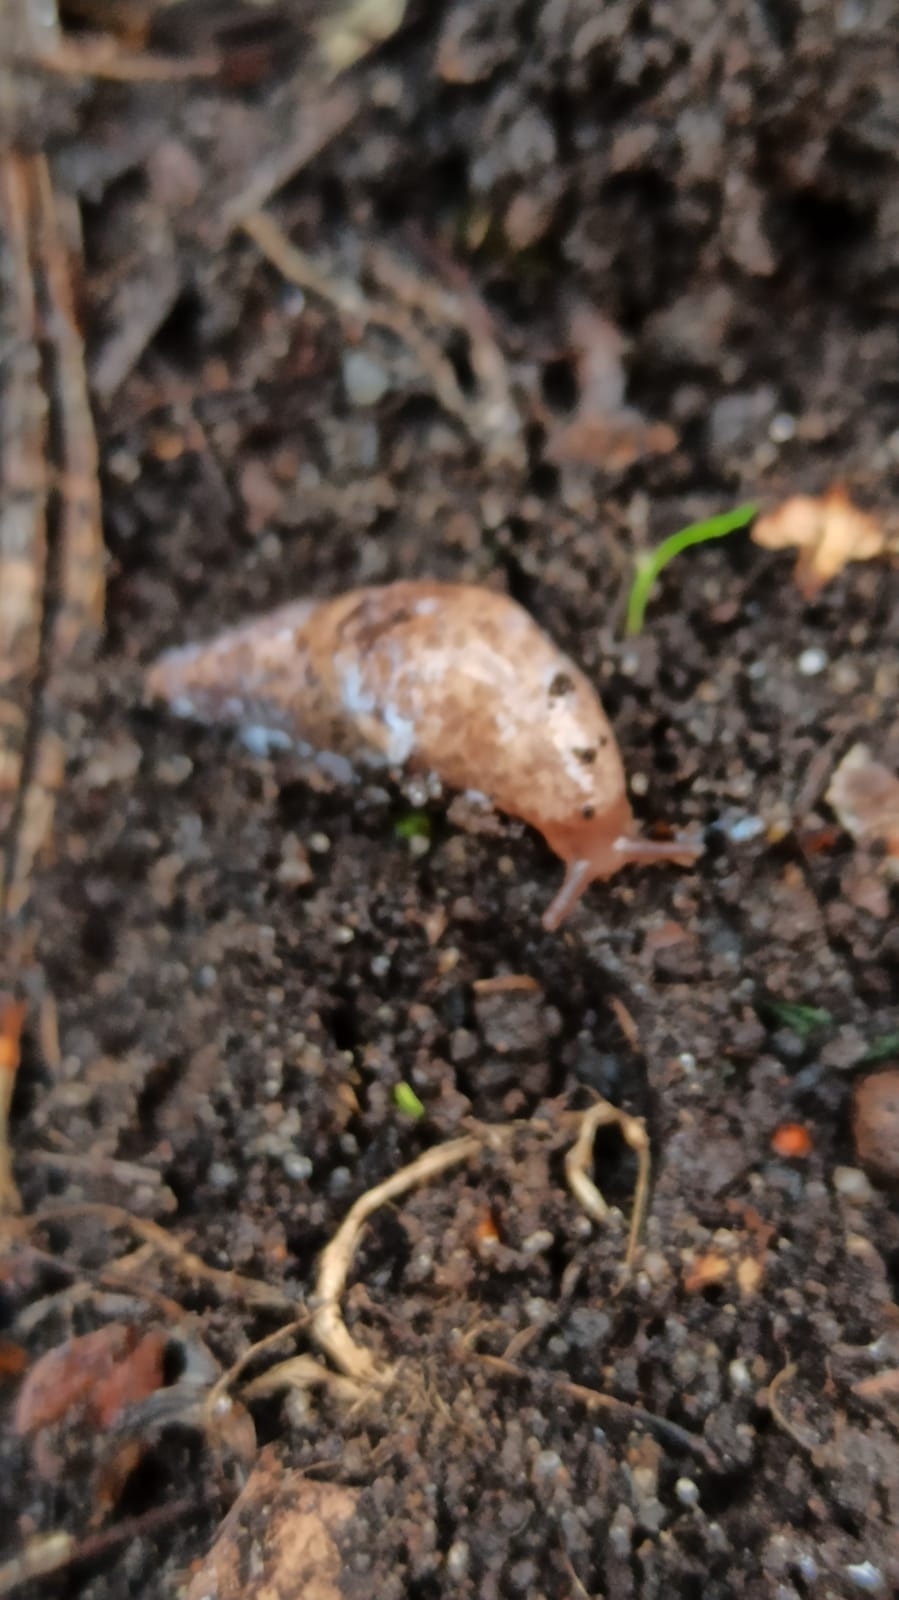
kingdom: Animalia
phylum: Mollusca
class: Gastropoda
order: Stylommatophora
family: Agriolimacidae
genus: Deroceras
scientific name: Deroceras reticulatum
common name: Gray field slug
